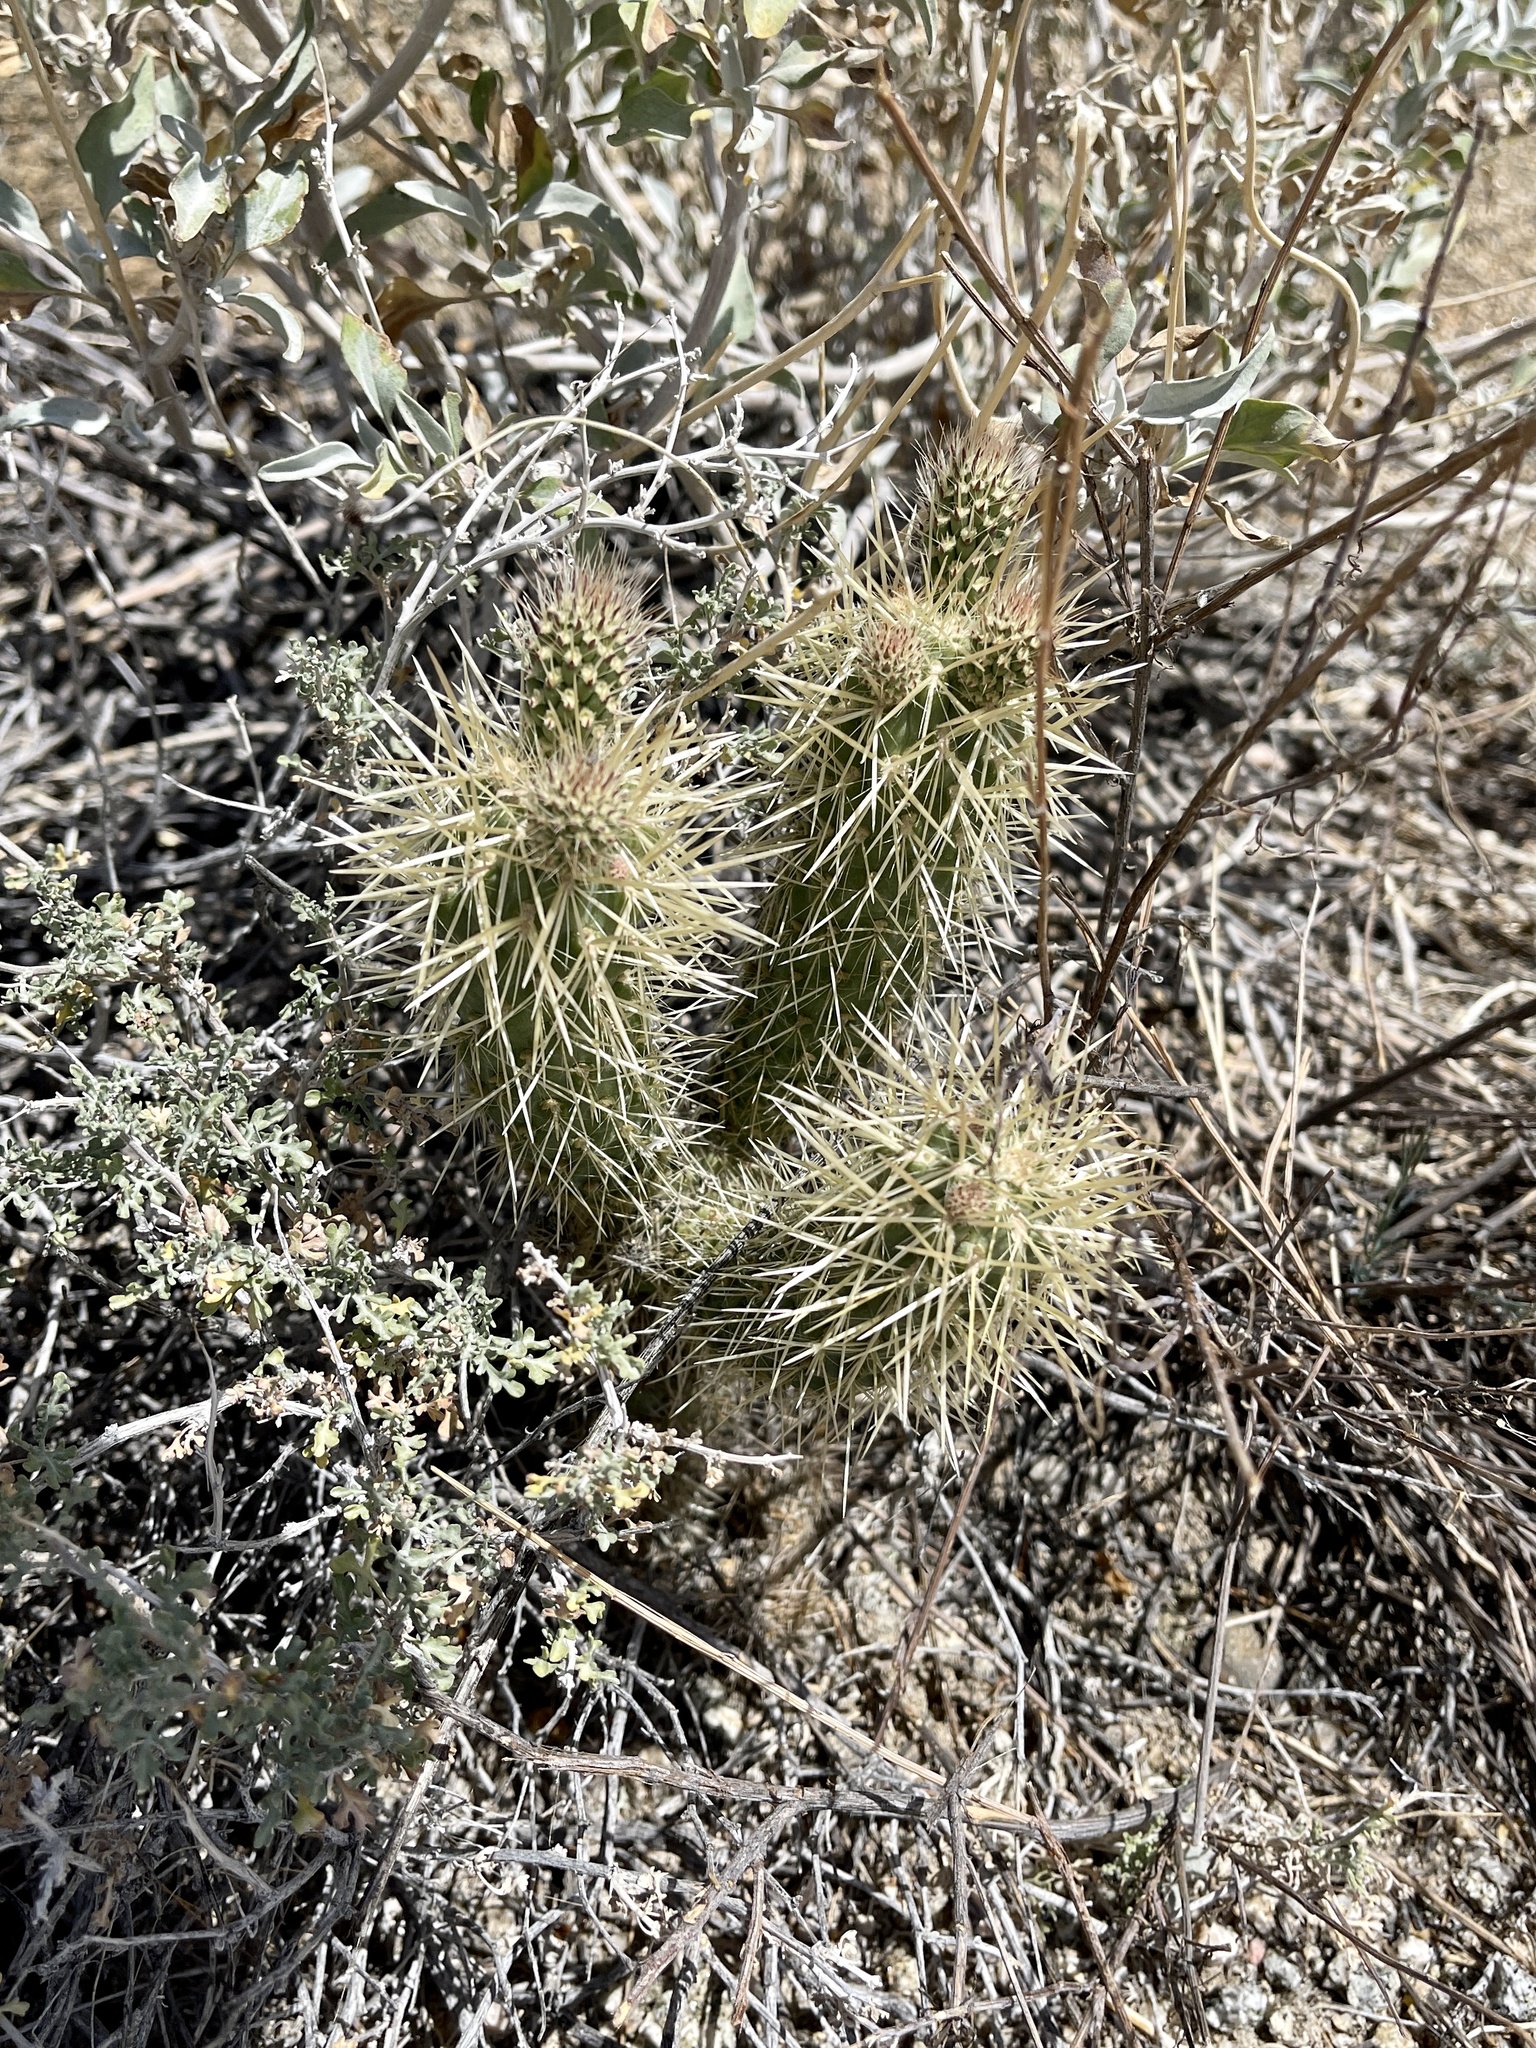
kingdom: Plantae
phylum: Tracheophyta
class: Magnoliopsida
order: Caryophyllales
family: Cactaceae
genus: Cylindropuntia
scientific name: Cylindropuntia acanthocarpa
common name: Buckhorn cholla
